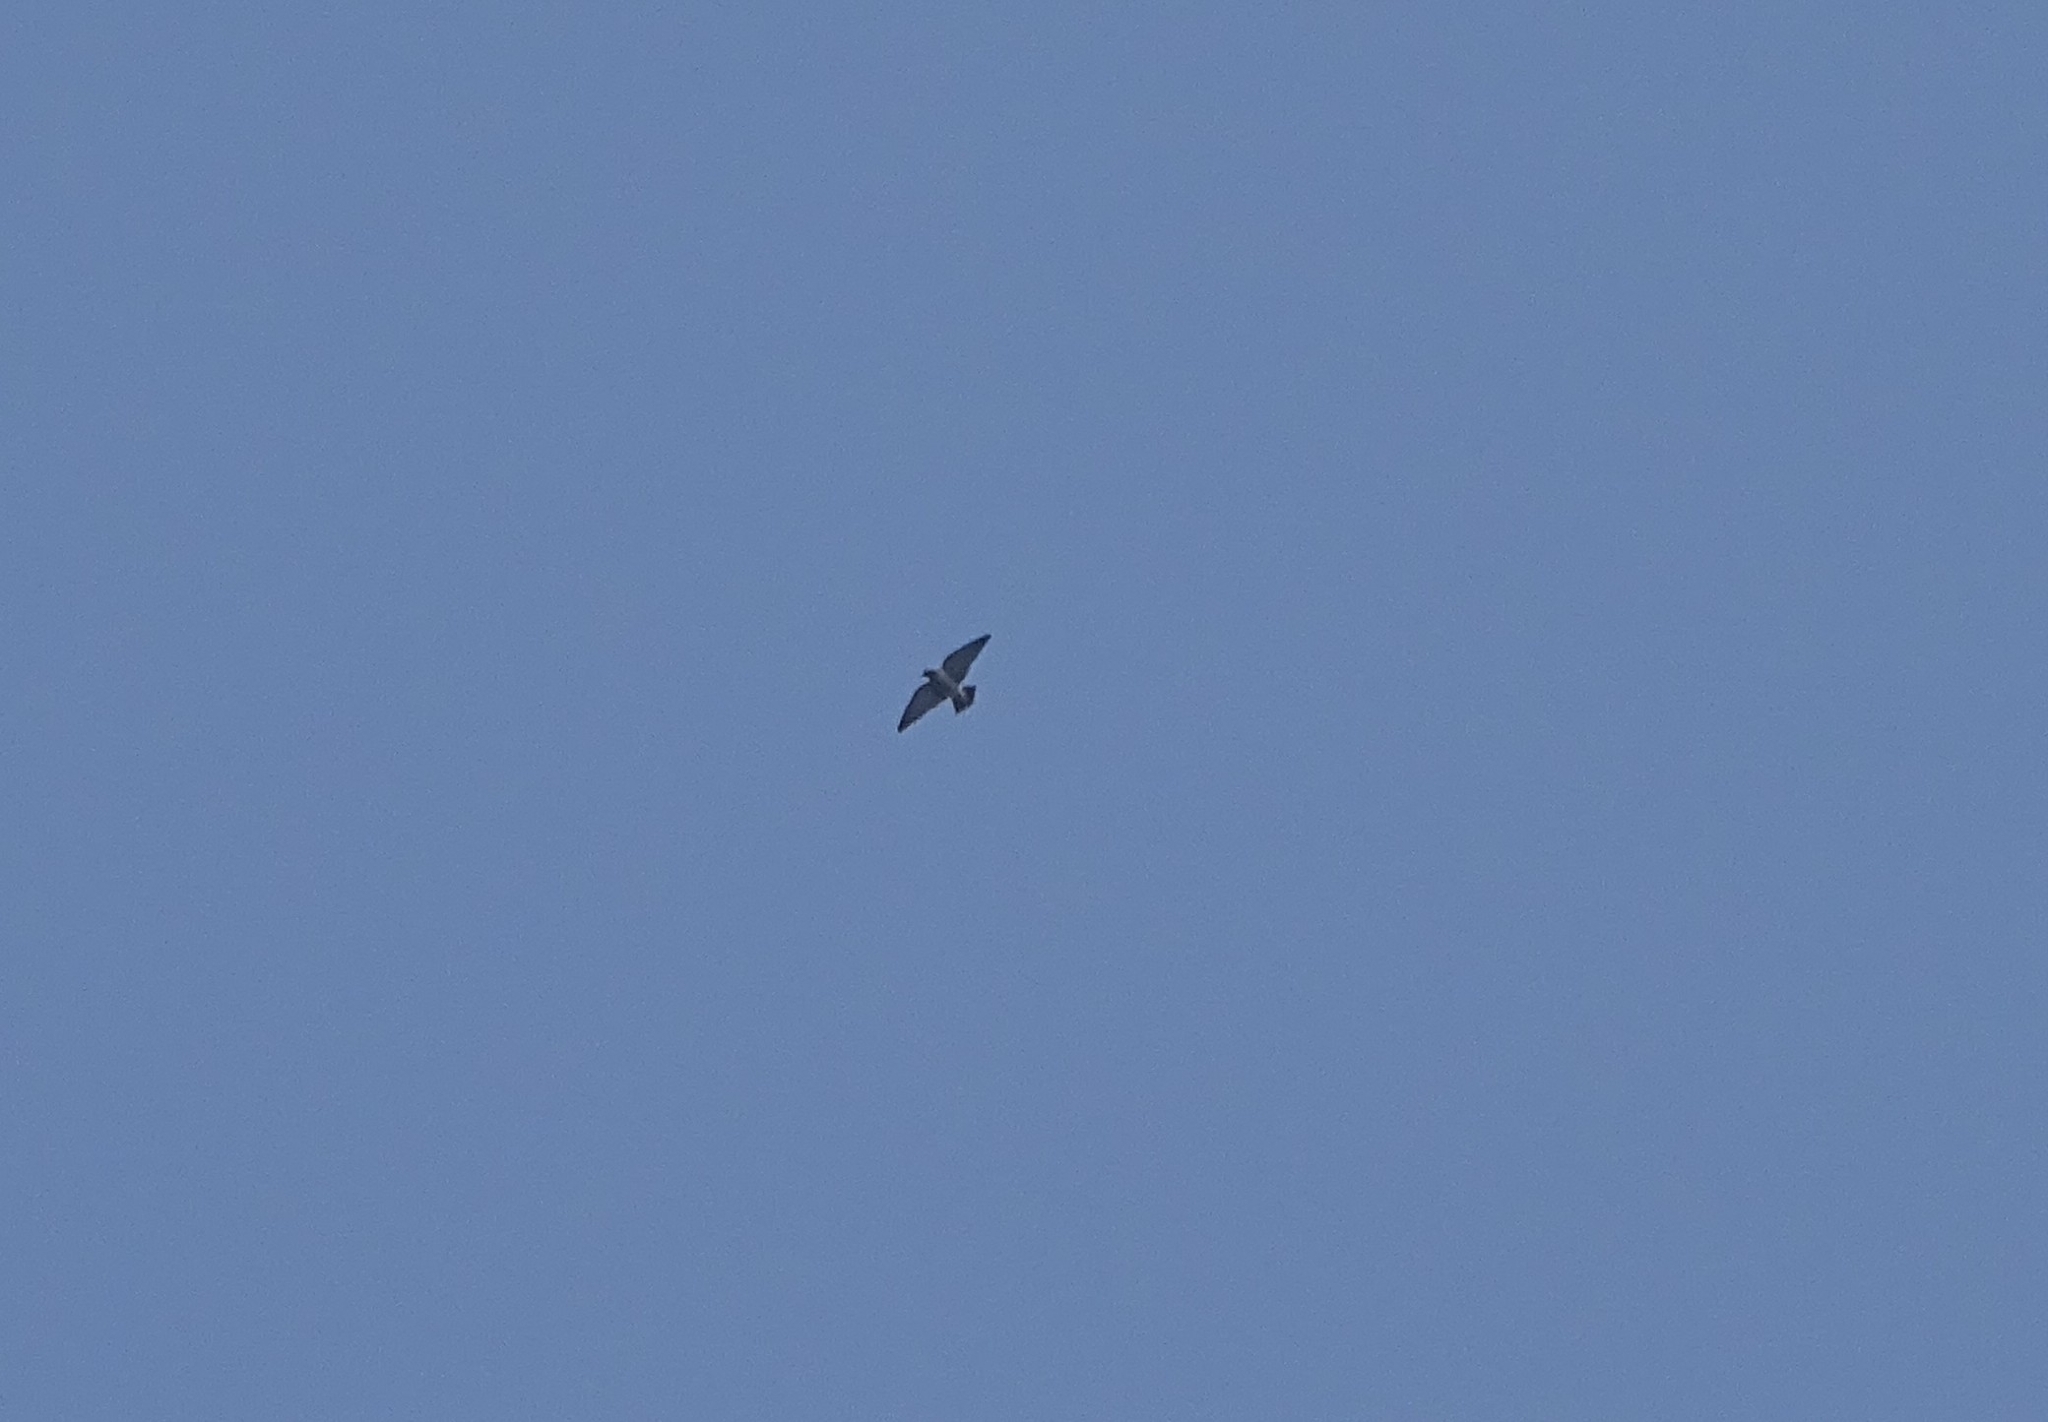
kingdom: Animalia
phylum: Chordata
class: Aves
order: Passeriformes
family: Artamidae
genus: Artamus
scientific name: Artamus fuscus
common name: Ashy woodswallow
